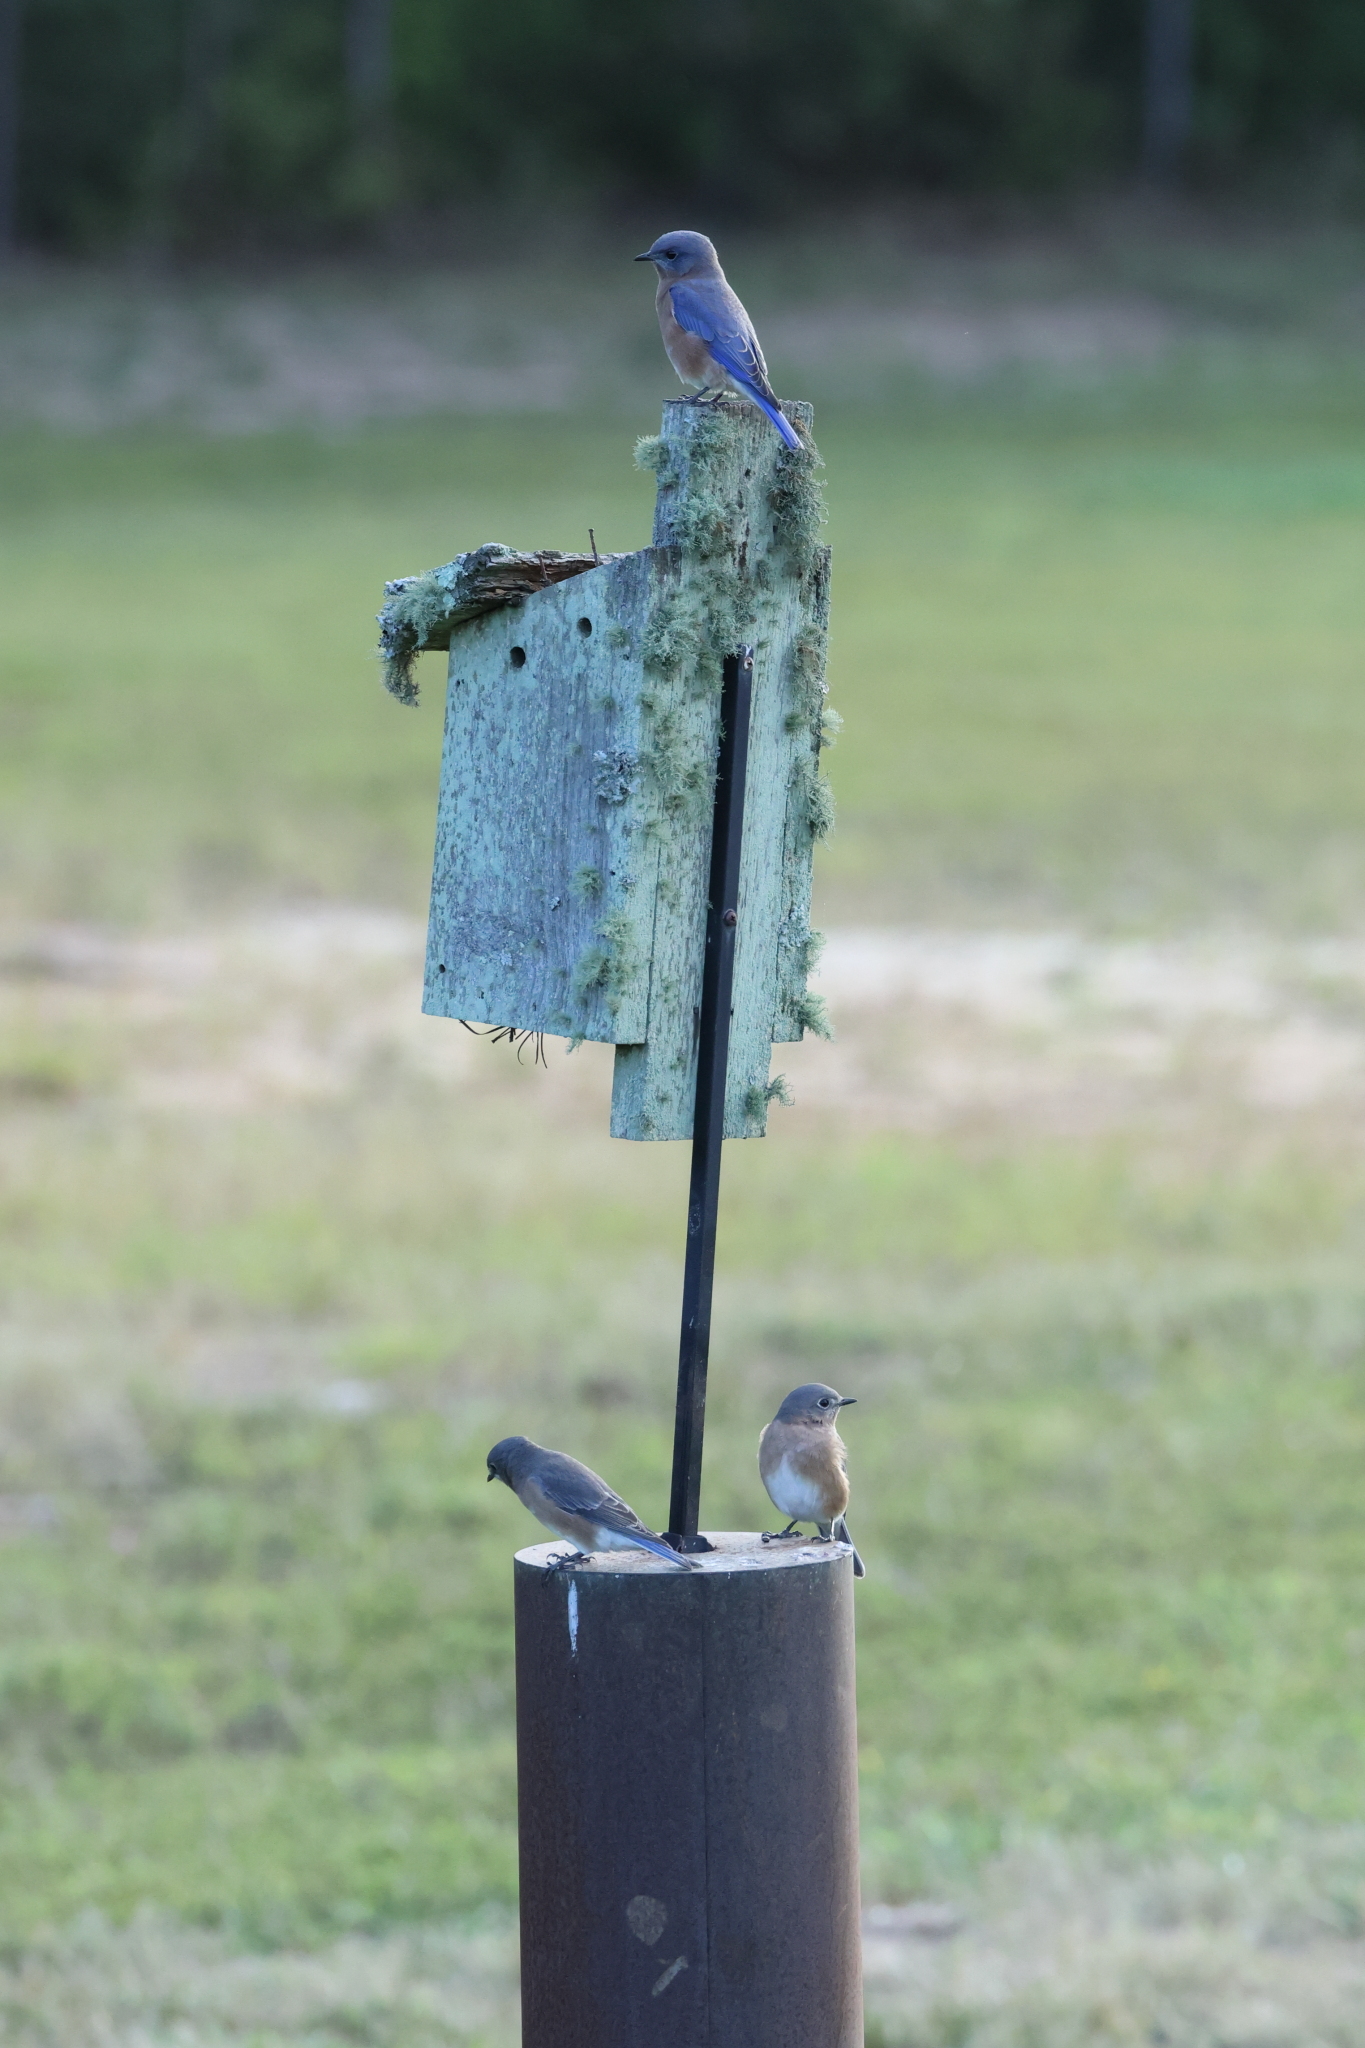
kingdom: Animalia
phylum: Chordata
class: Aves
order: Passeriformes
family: Turdidae
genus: Sialia
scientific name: Sialia sialis
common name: Eastern bluebird
